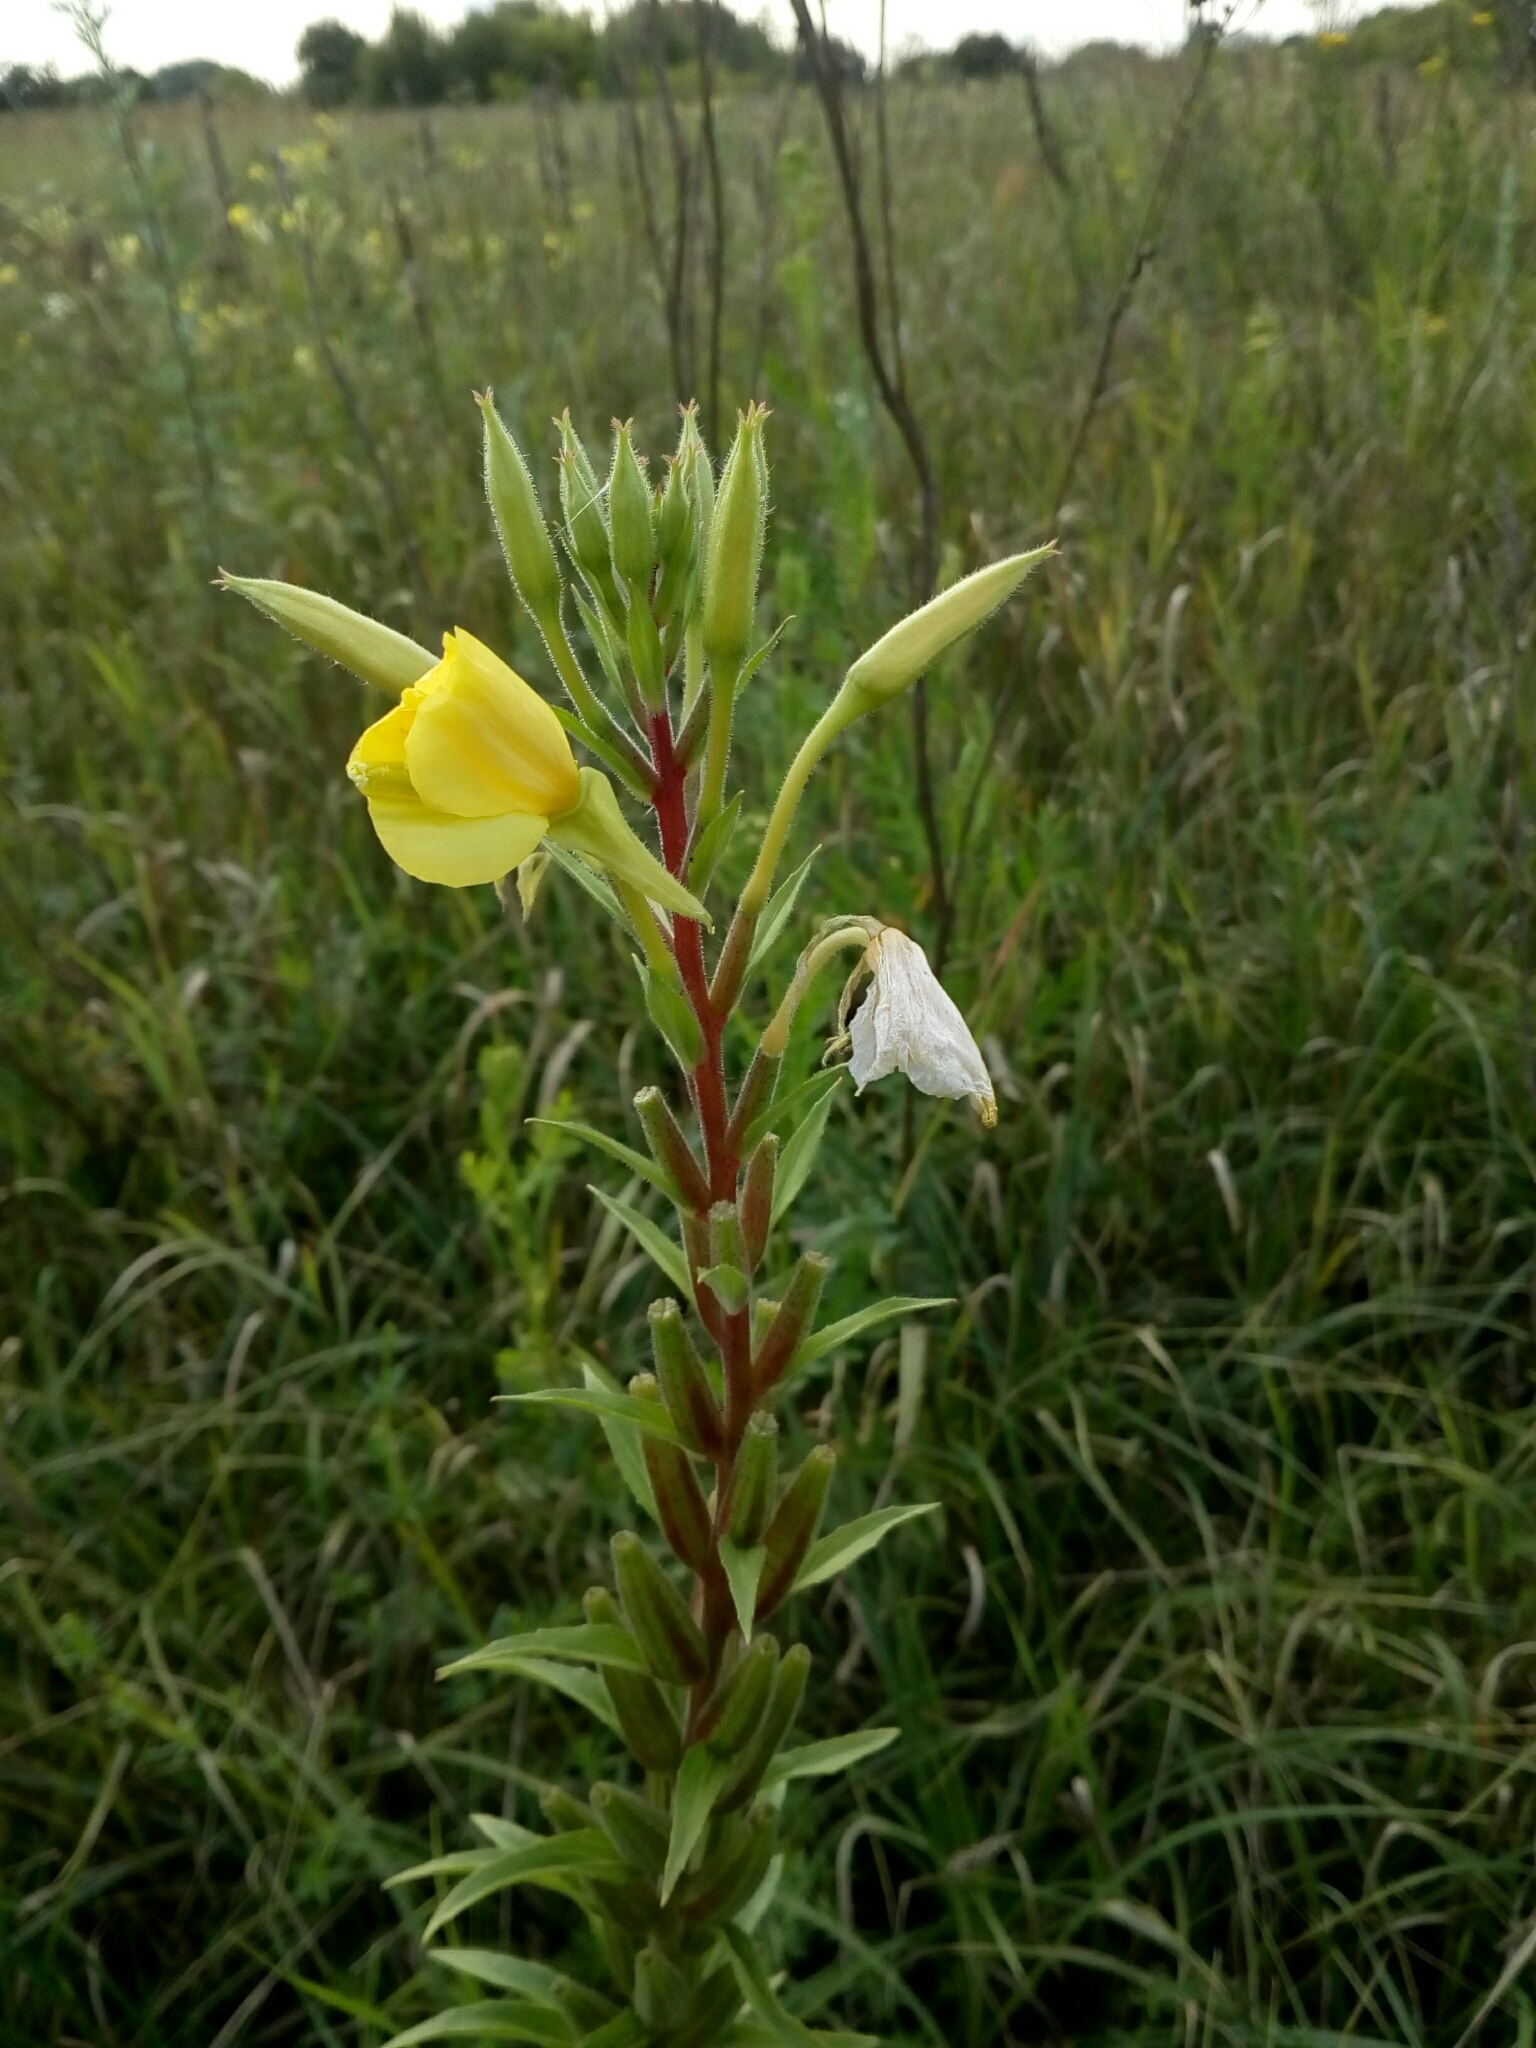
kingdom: Plantae
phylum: Tracheophyta
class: Magnoliopsida
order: Myrtales
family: Onagraceae
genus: Oenothera
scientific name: Oenothera rubricaulis
